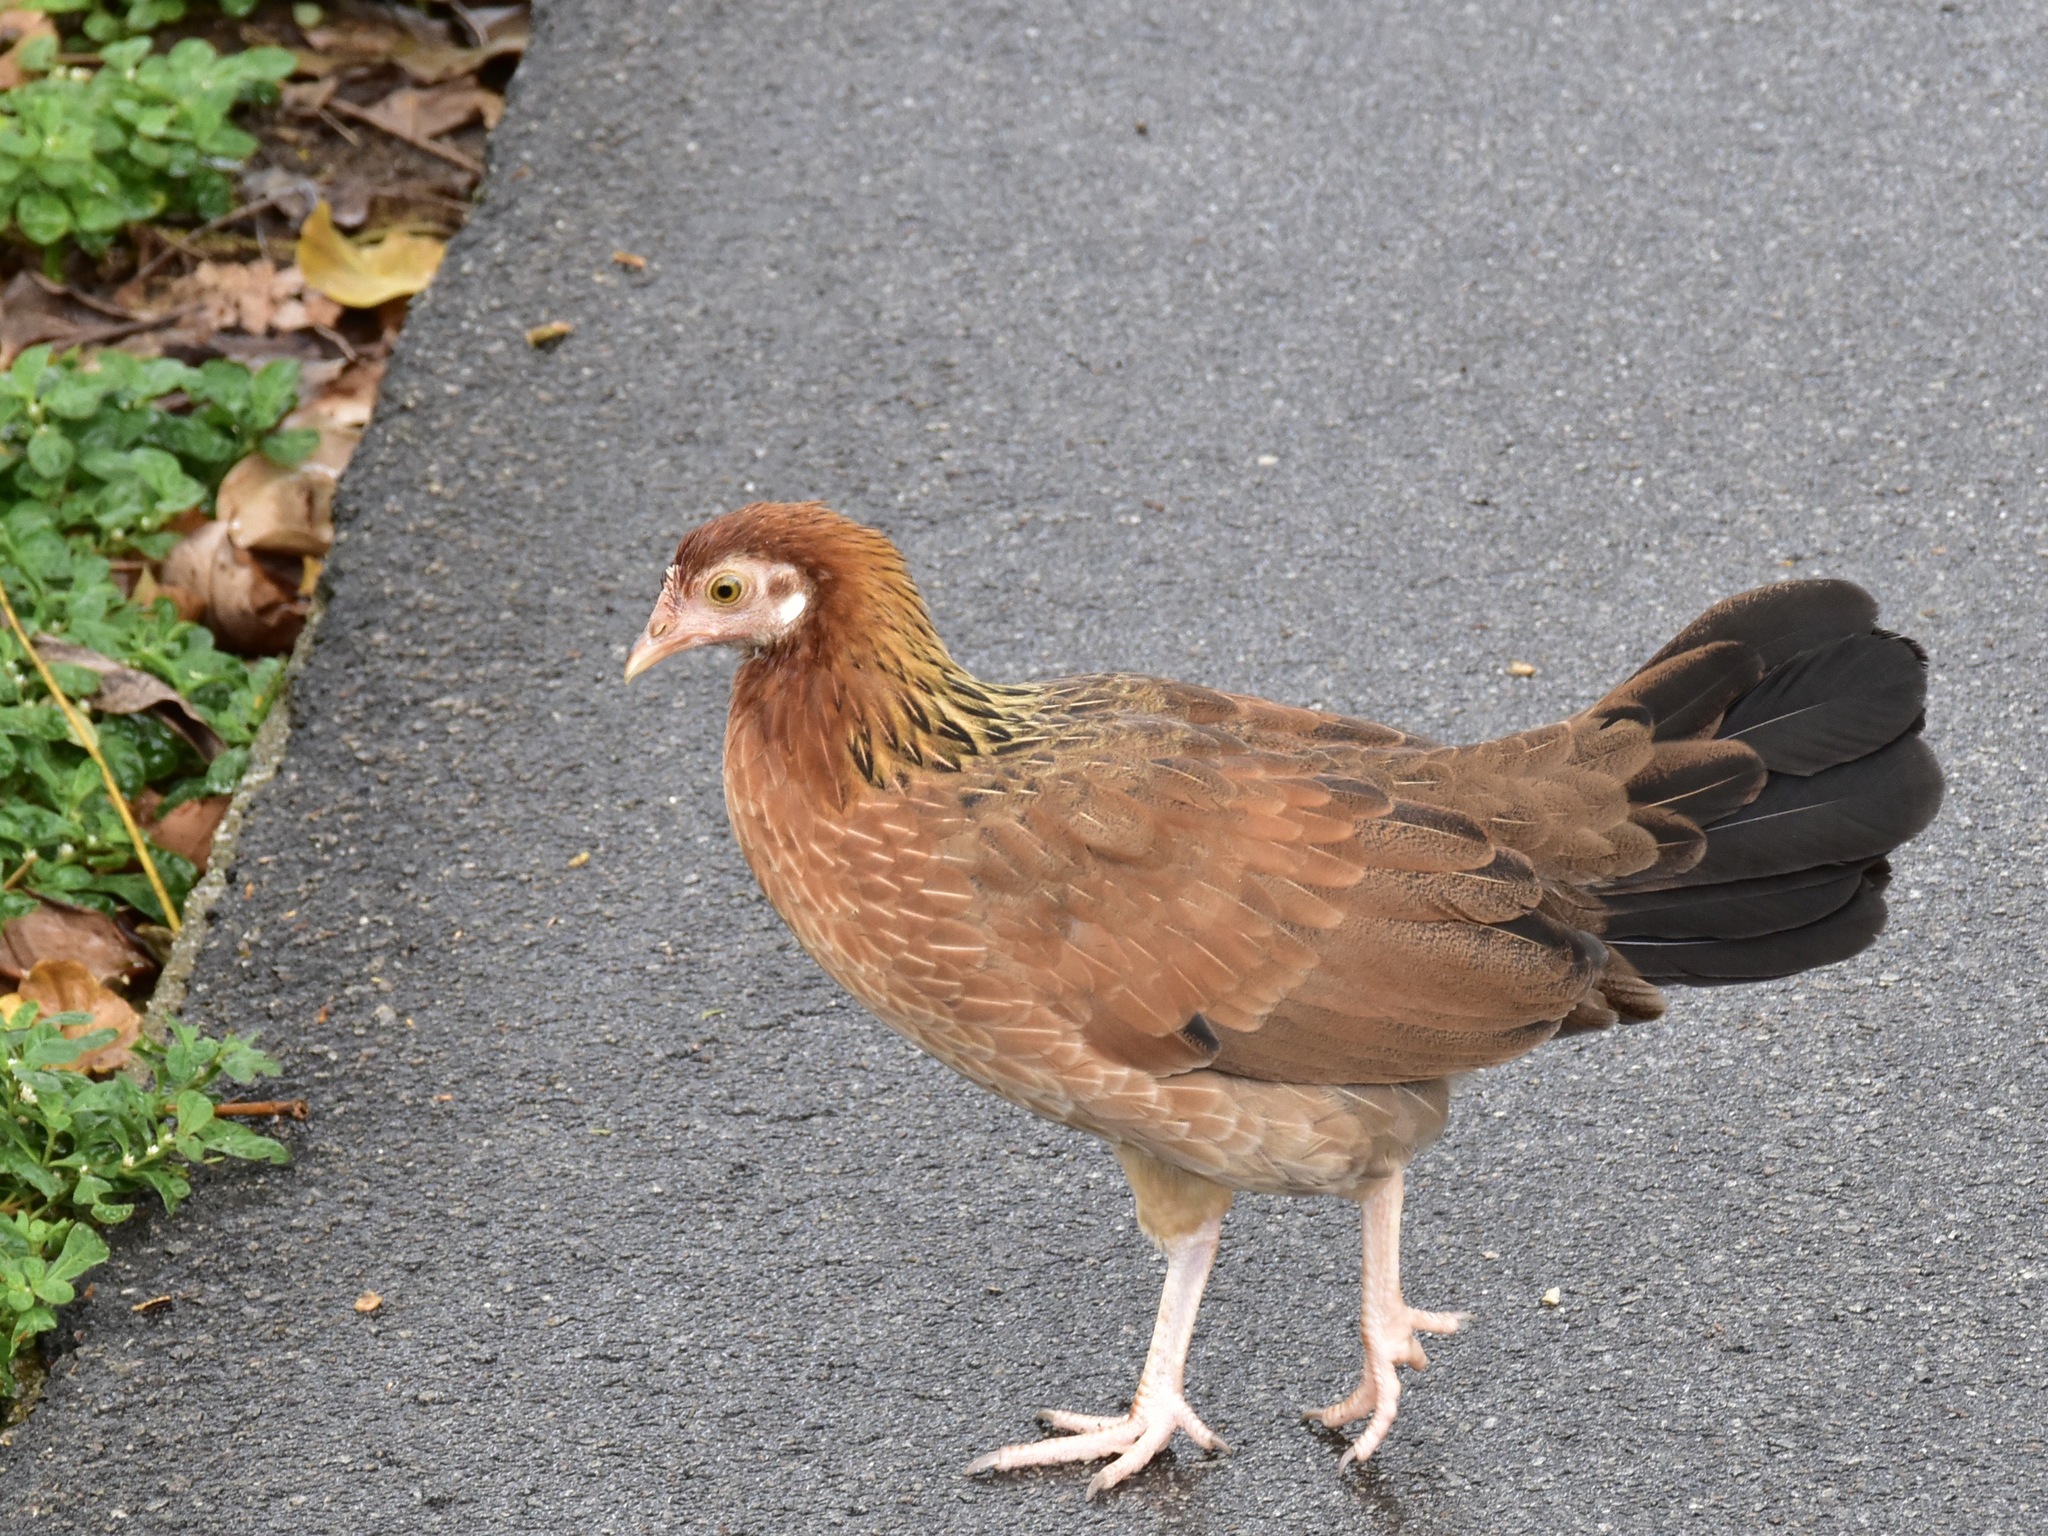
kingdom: Animalia
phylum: Chordata
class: Aves
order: Galliformes
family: Phasianidae
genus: Gallus
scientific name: Gallus gallus
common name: Red junglefowl
